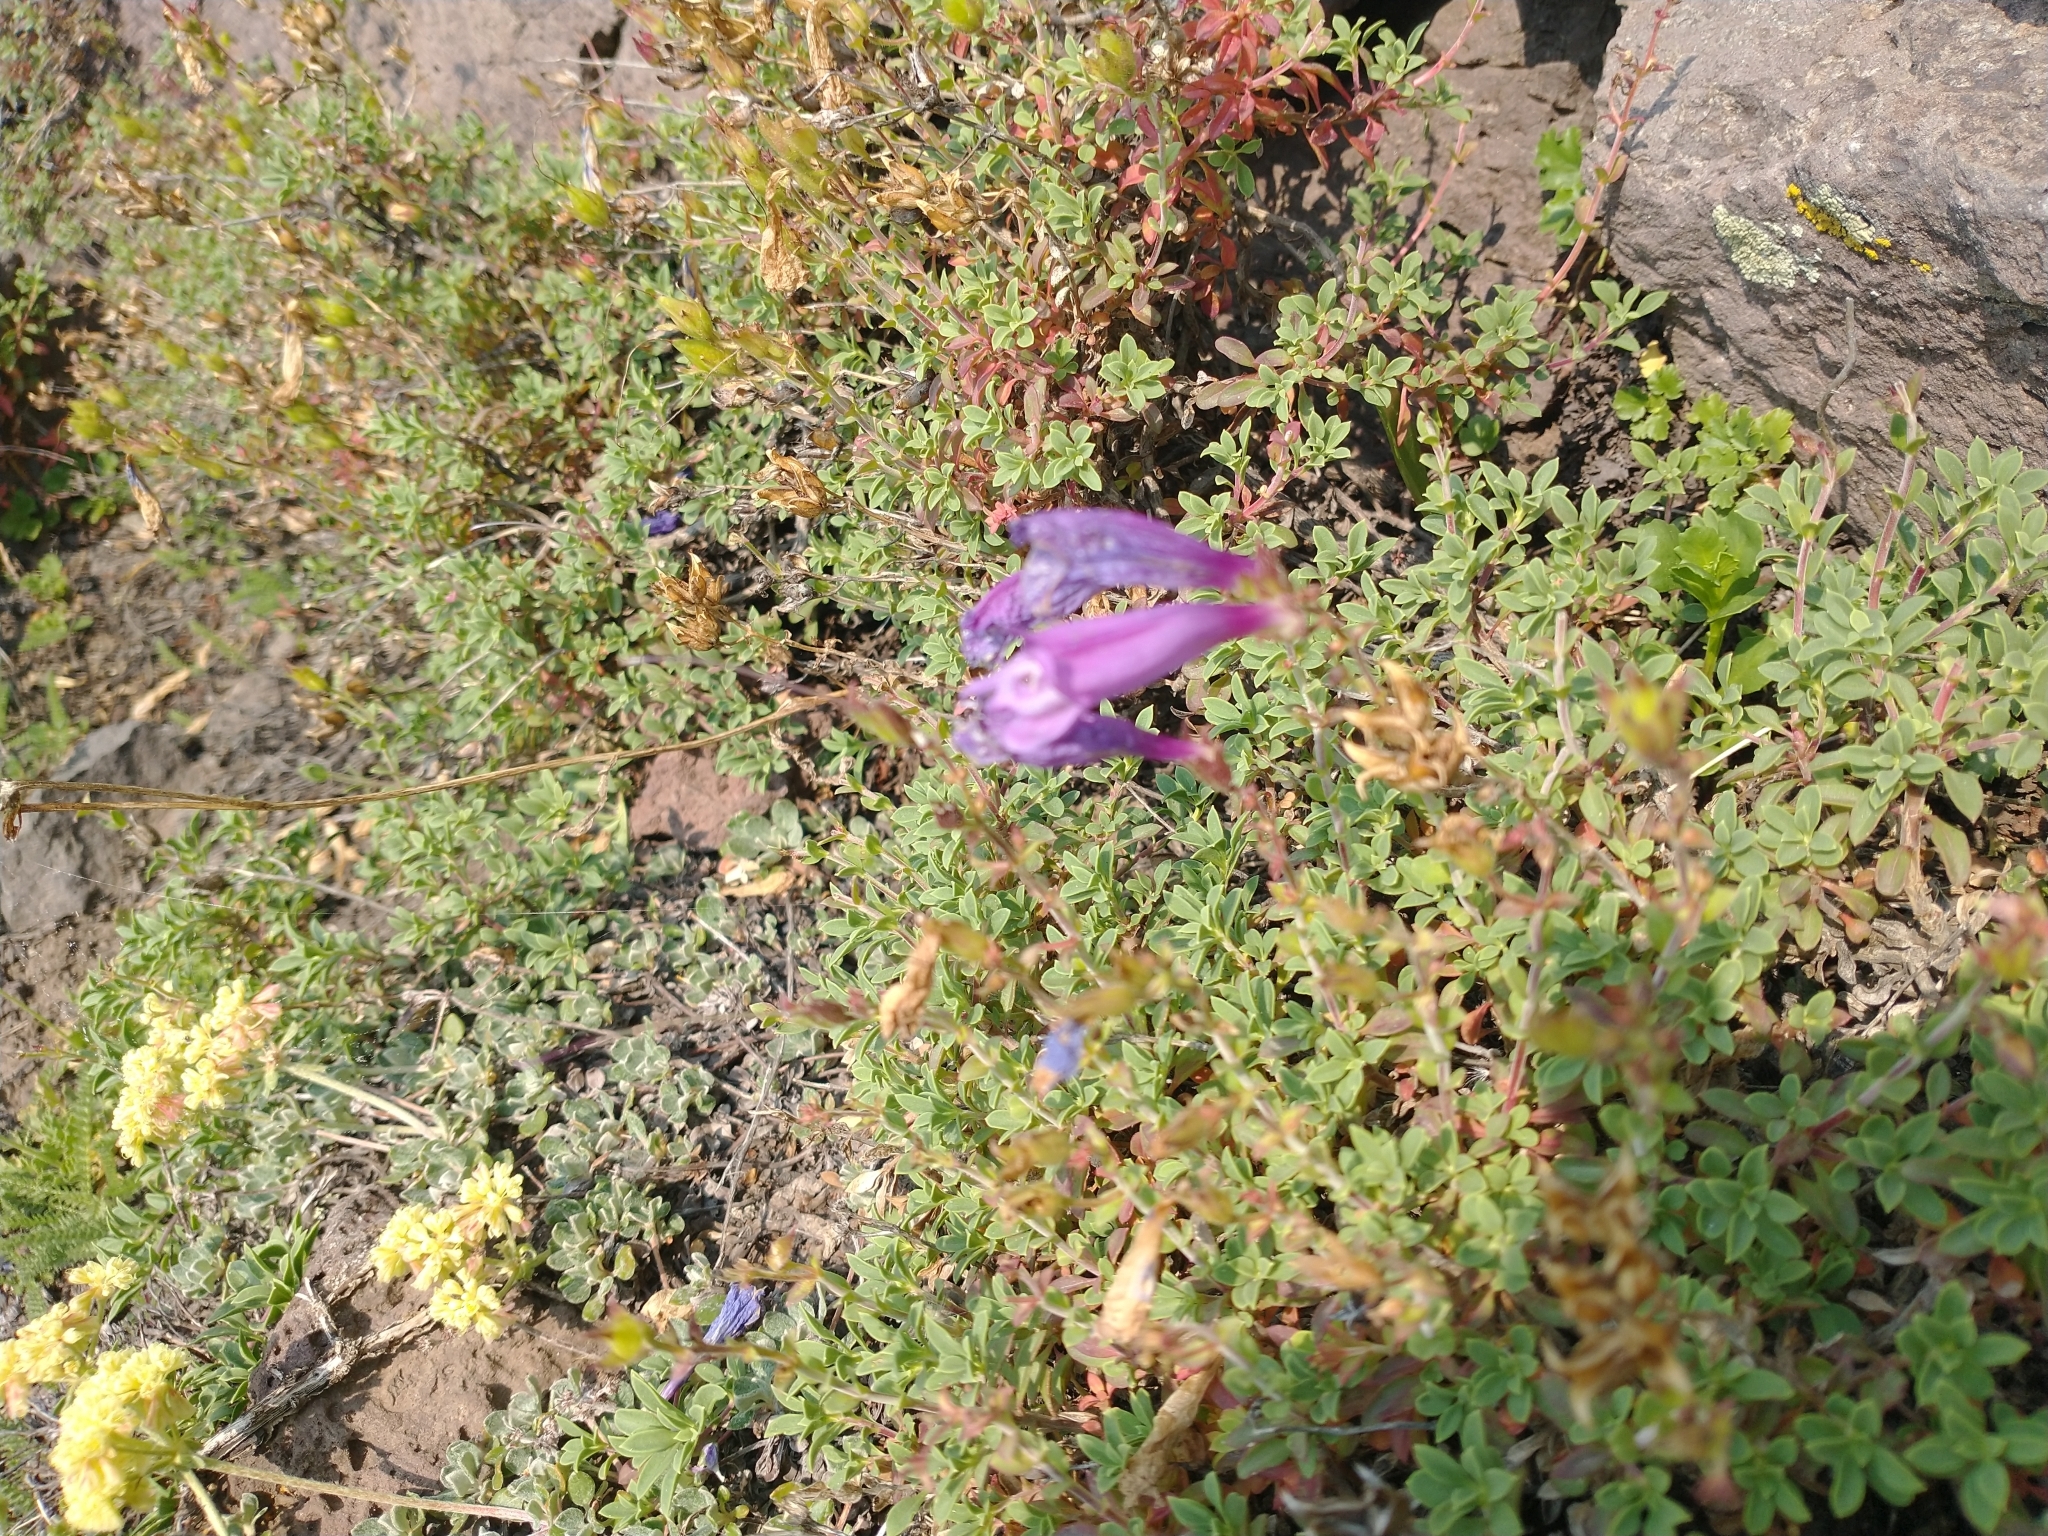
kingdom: Plantae
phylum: Tracheophyta
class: Magnoliopsida
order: Lamiales
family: Plantaginaceae
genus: Penstemon
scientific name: Penstemon davidsonii
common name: Davidson's penstemon
